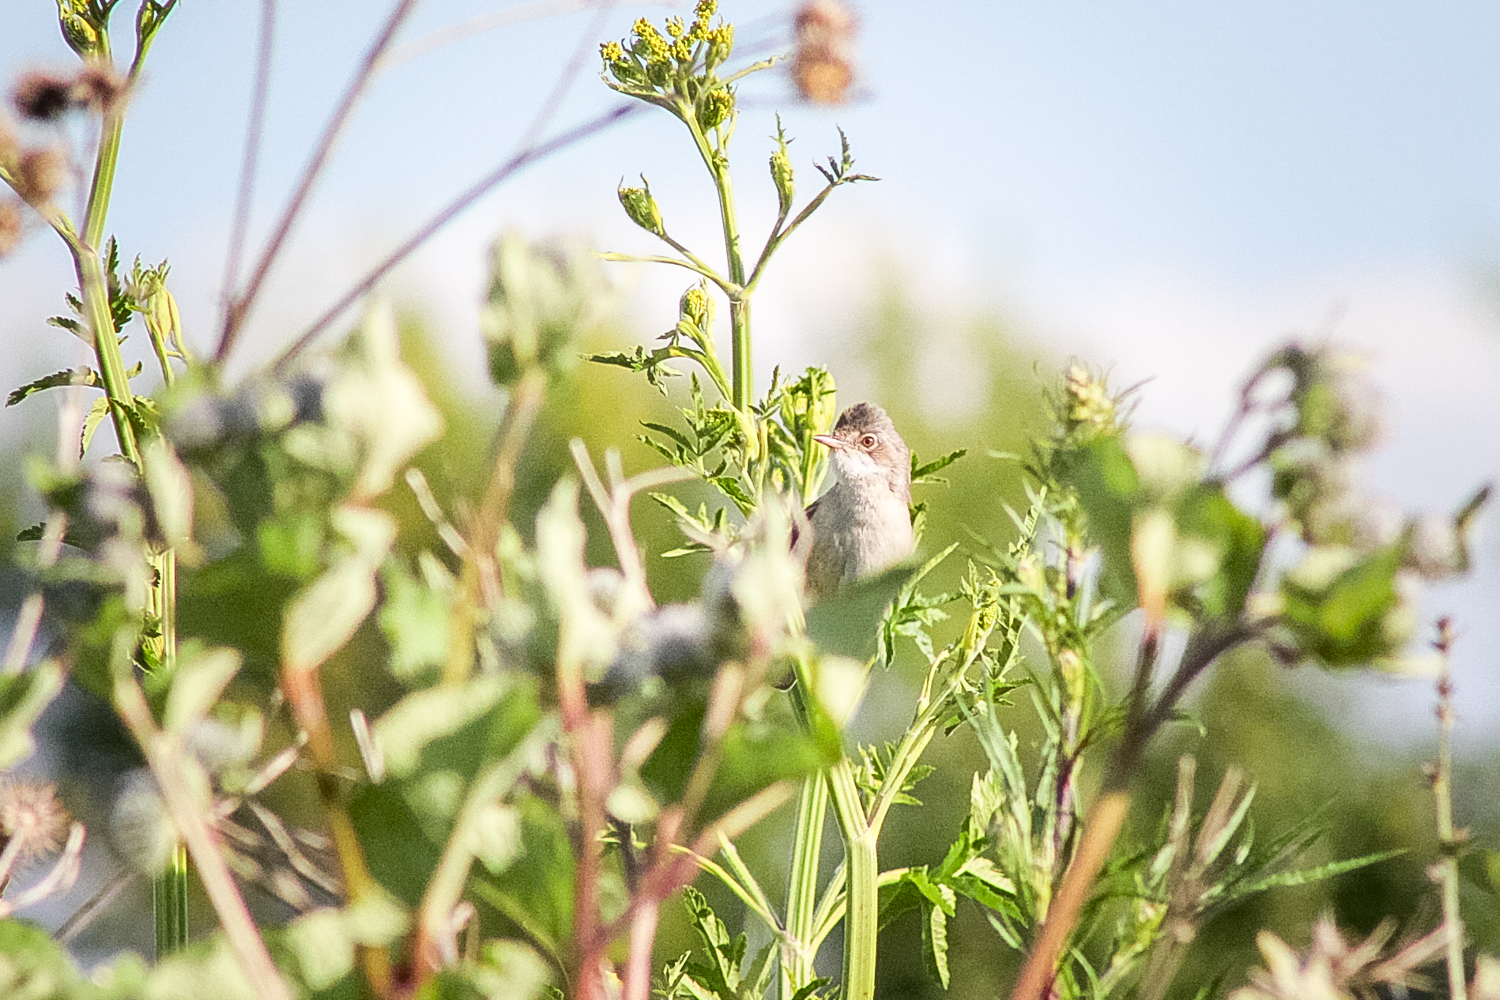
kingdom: Animalia
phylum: Chordata
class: Aves
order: Passeriformes
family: Sylviidae
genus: Sylvia
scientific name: Sylvia communis
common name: Common whitethroat
